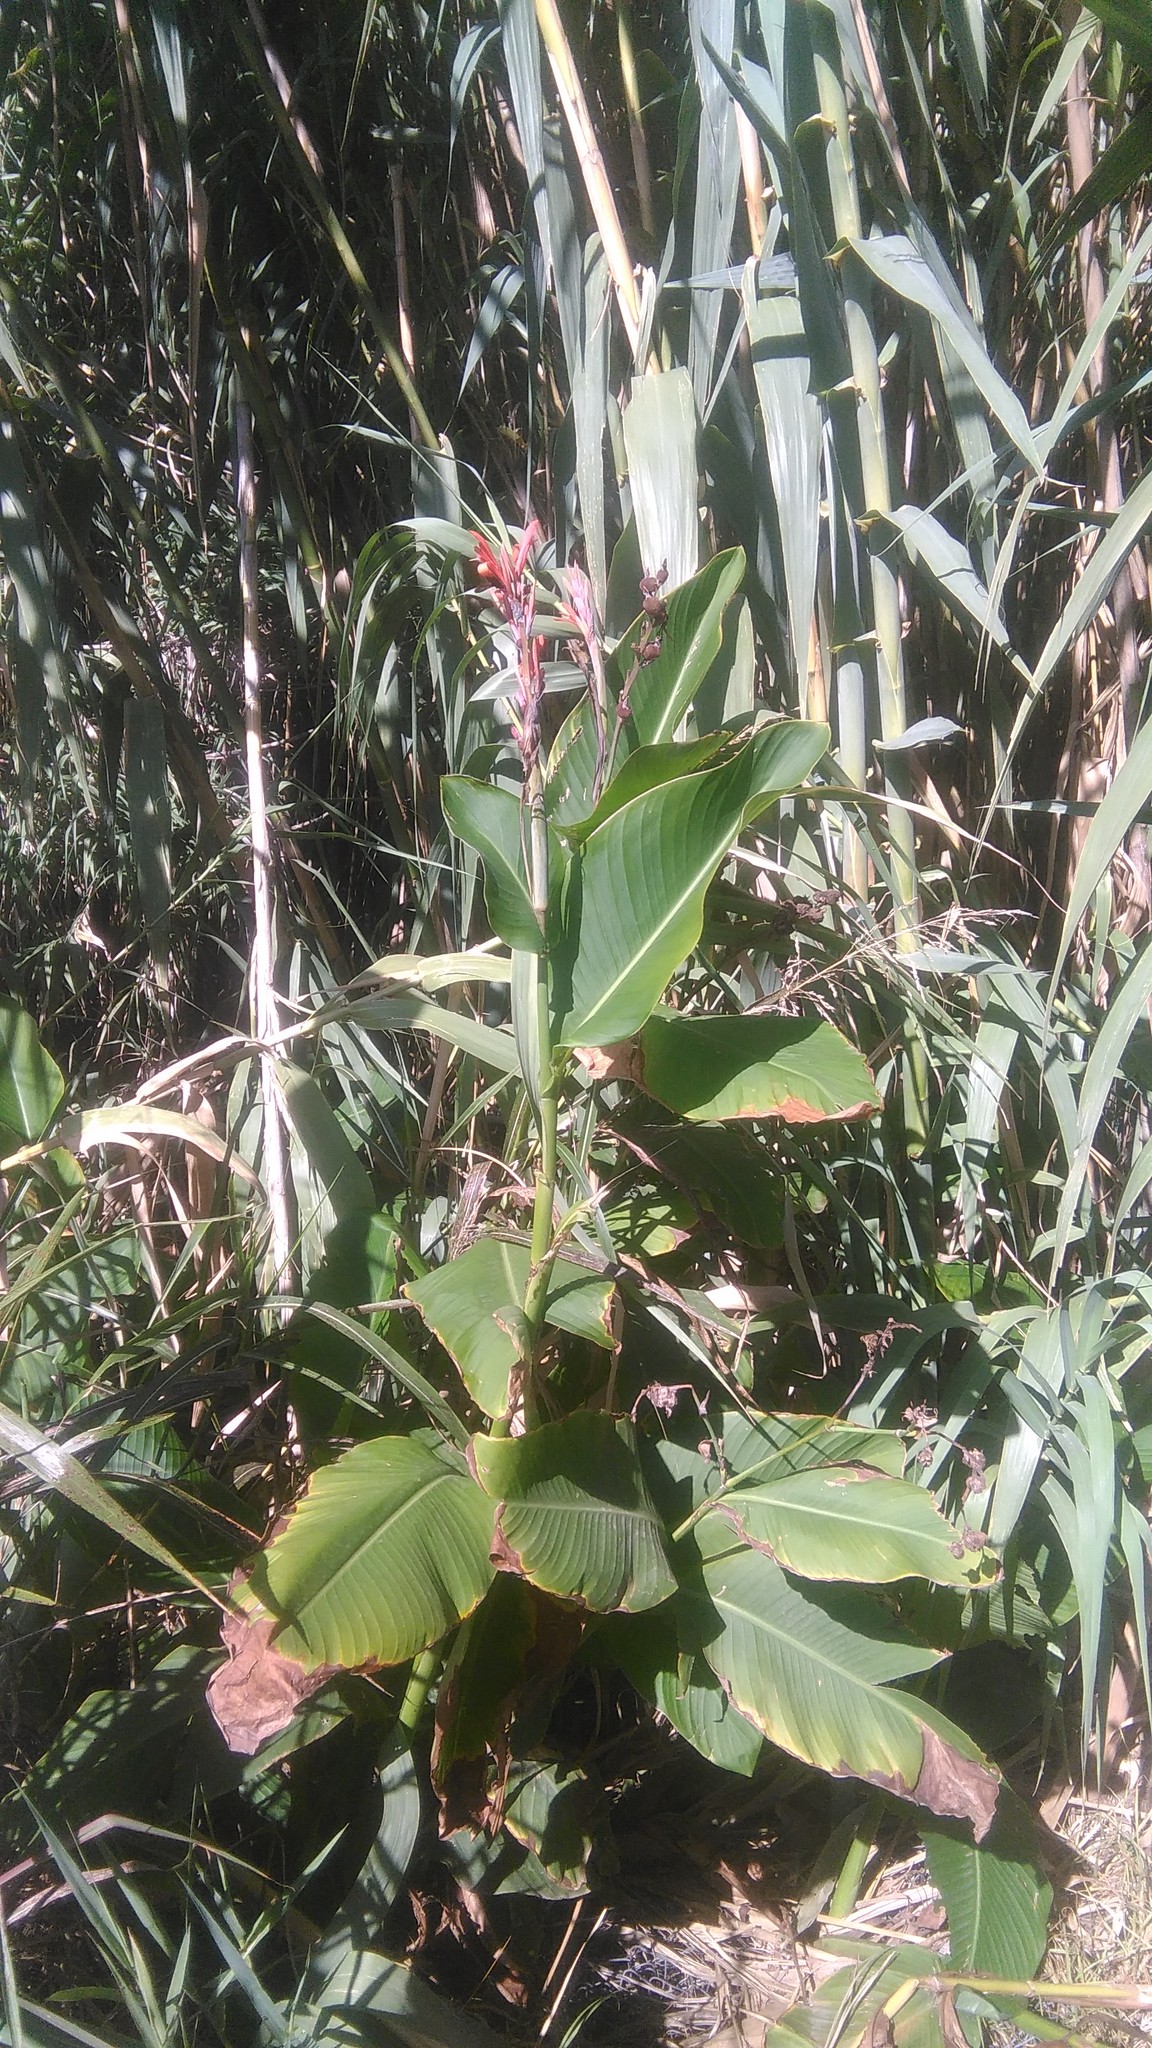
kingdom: Plantae
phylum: Tracheophyta
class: Liliopsida
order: Zingiberales
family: Cannaceae
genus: Canna
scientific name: Canna indica
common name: Indian shot
